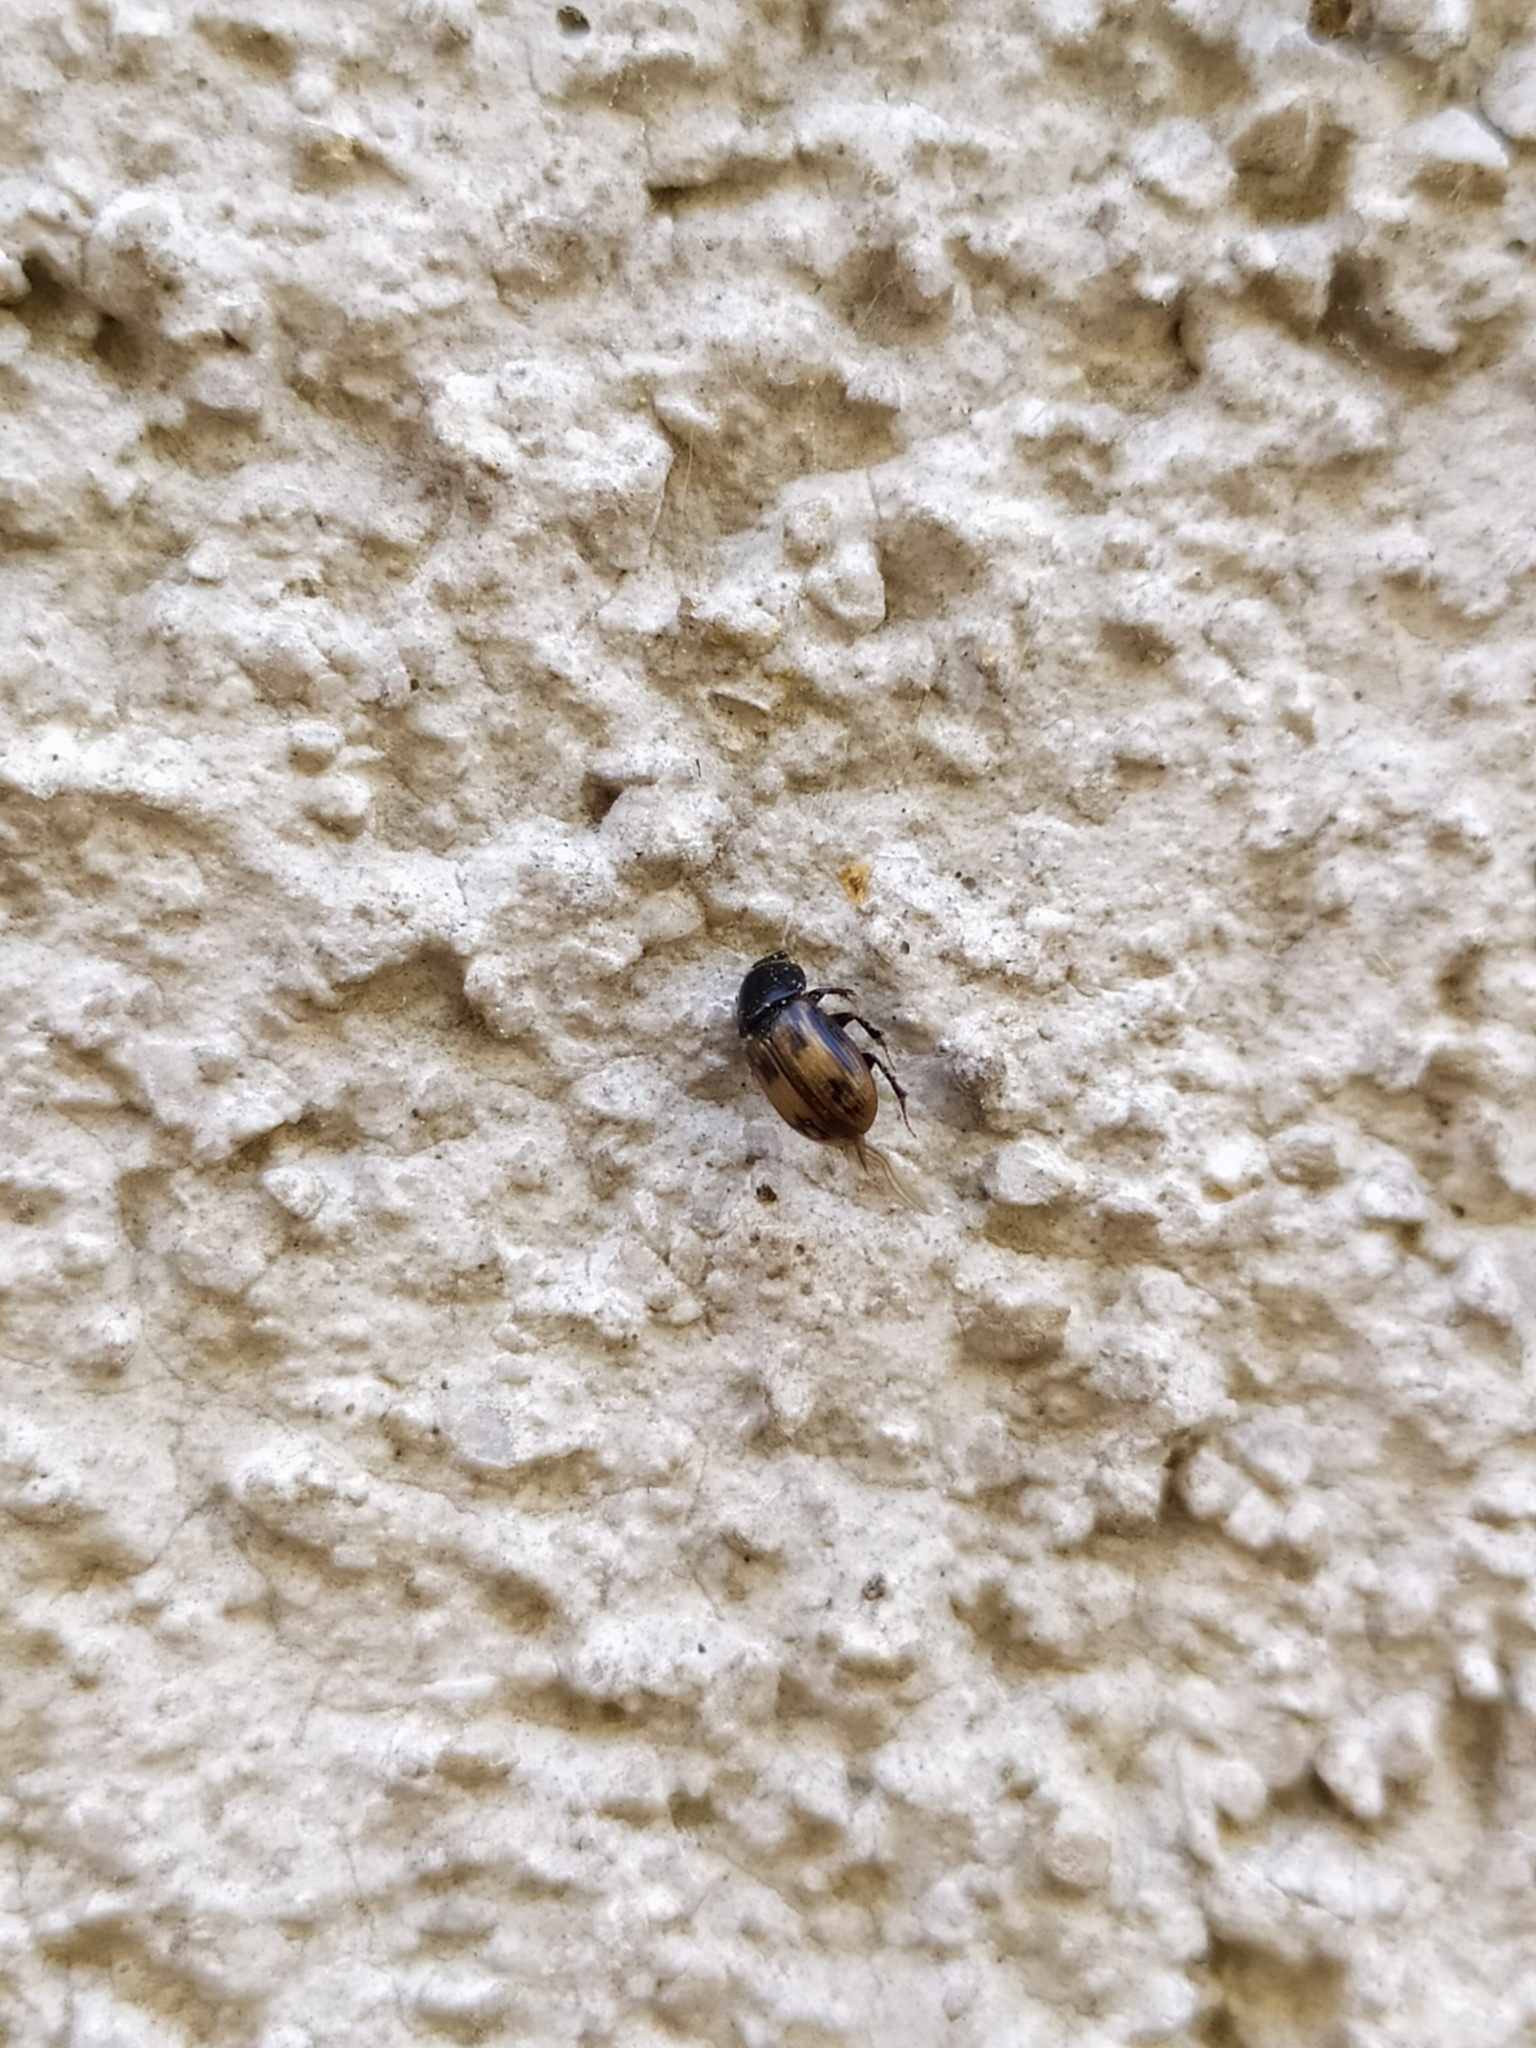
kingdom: Animalia
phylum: Arthropoda
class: Insecta
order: Coleoptera
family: Scarabaeidae
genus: Chilothorax
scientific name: Chilothorax distinctus
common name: Maculated dung beetle
